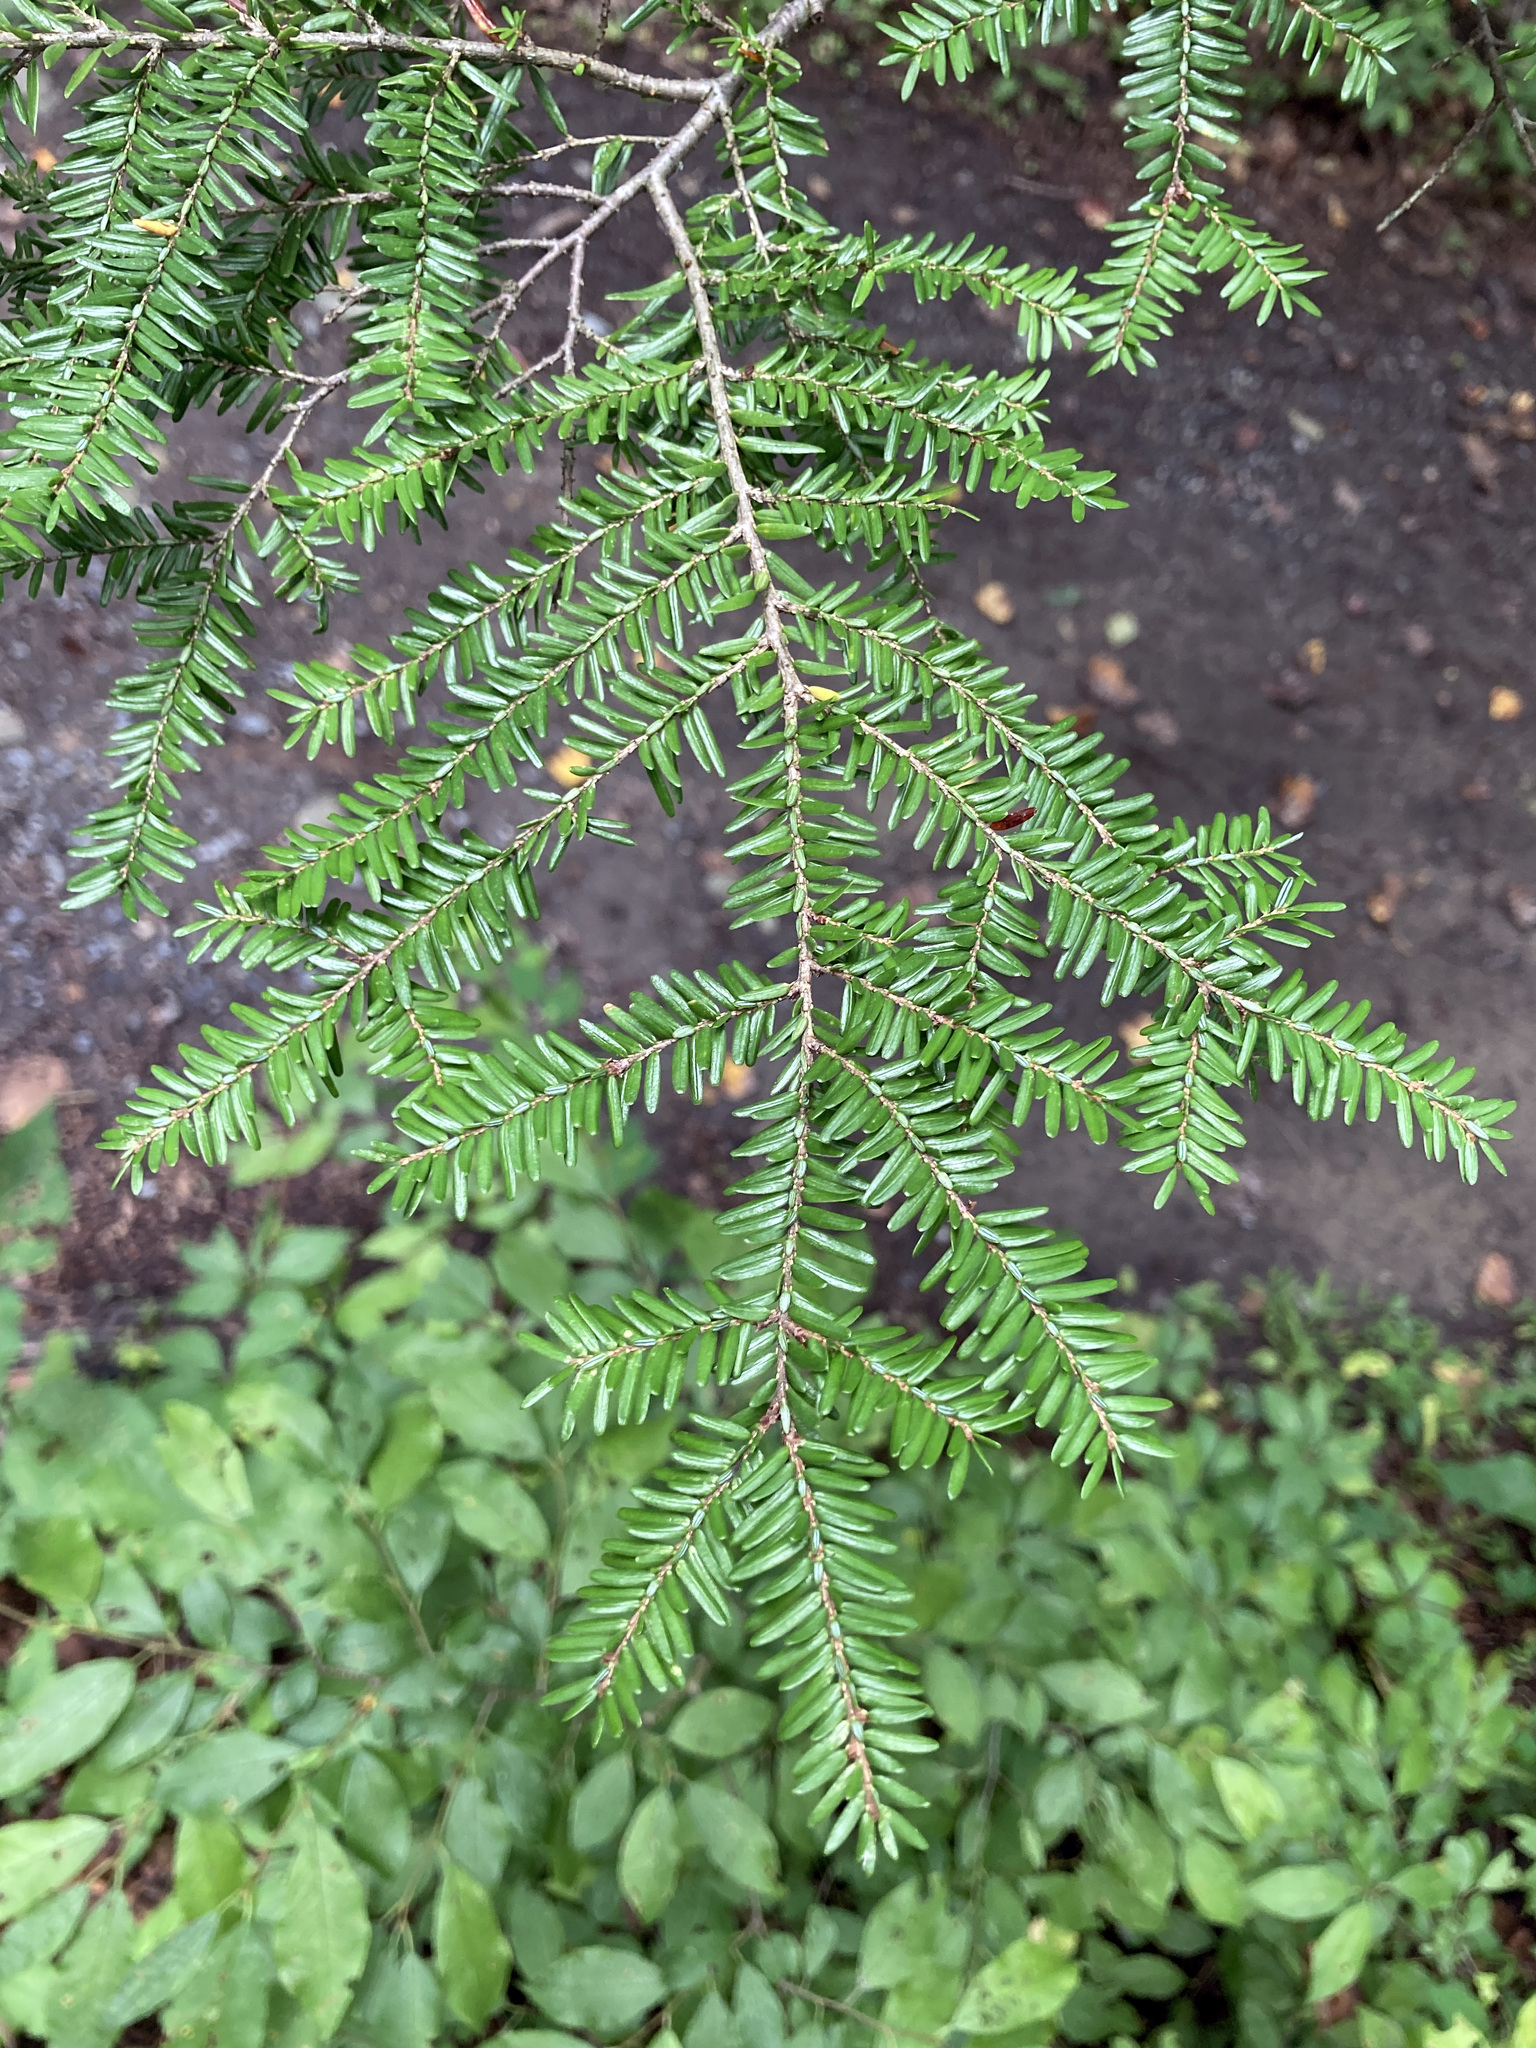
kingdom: Plantae
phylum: Tracheophyta
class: Pinopsida
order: Pinales
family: Pinaceae
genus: Tsuga
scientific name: Tsuga canadensis
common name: Eastern hemlock
